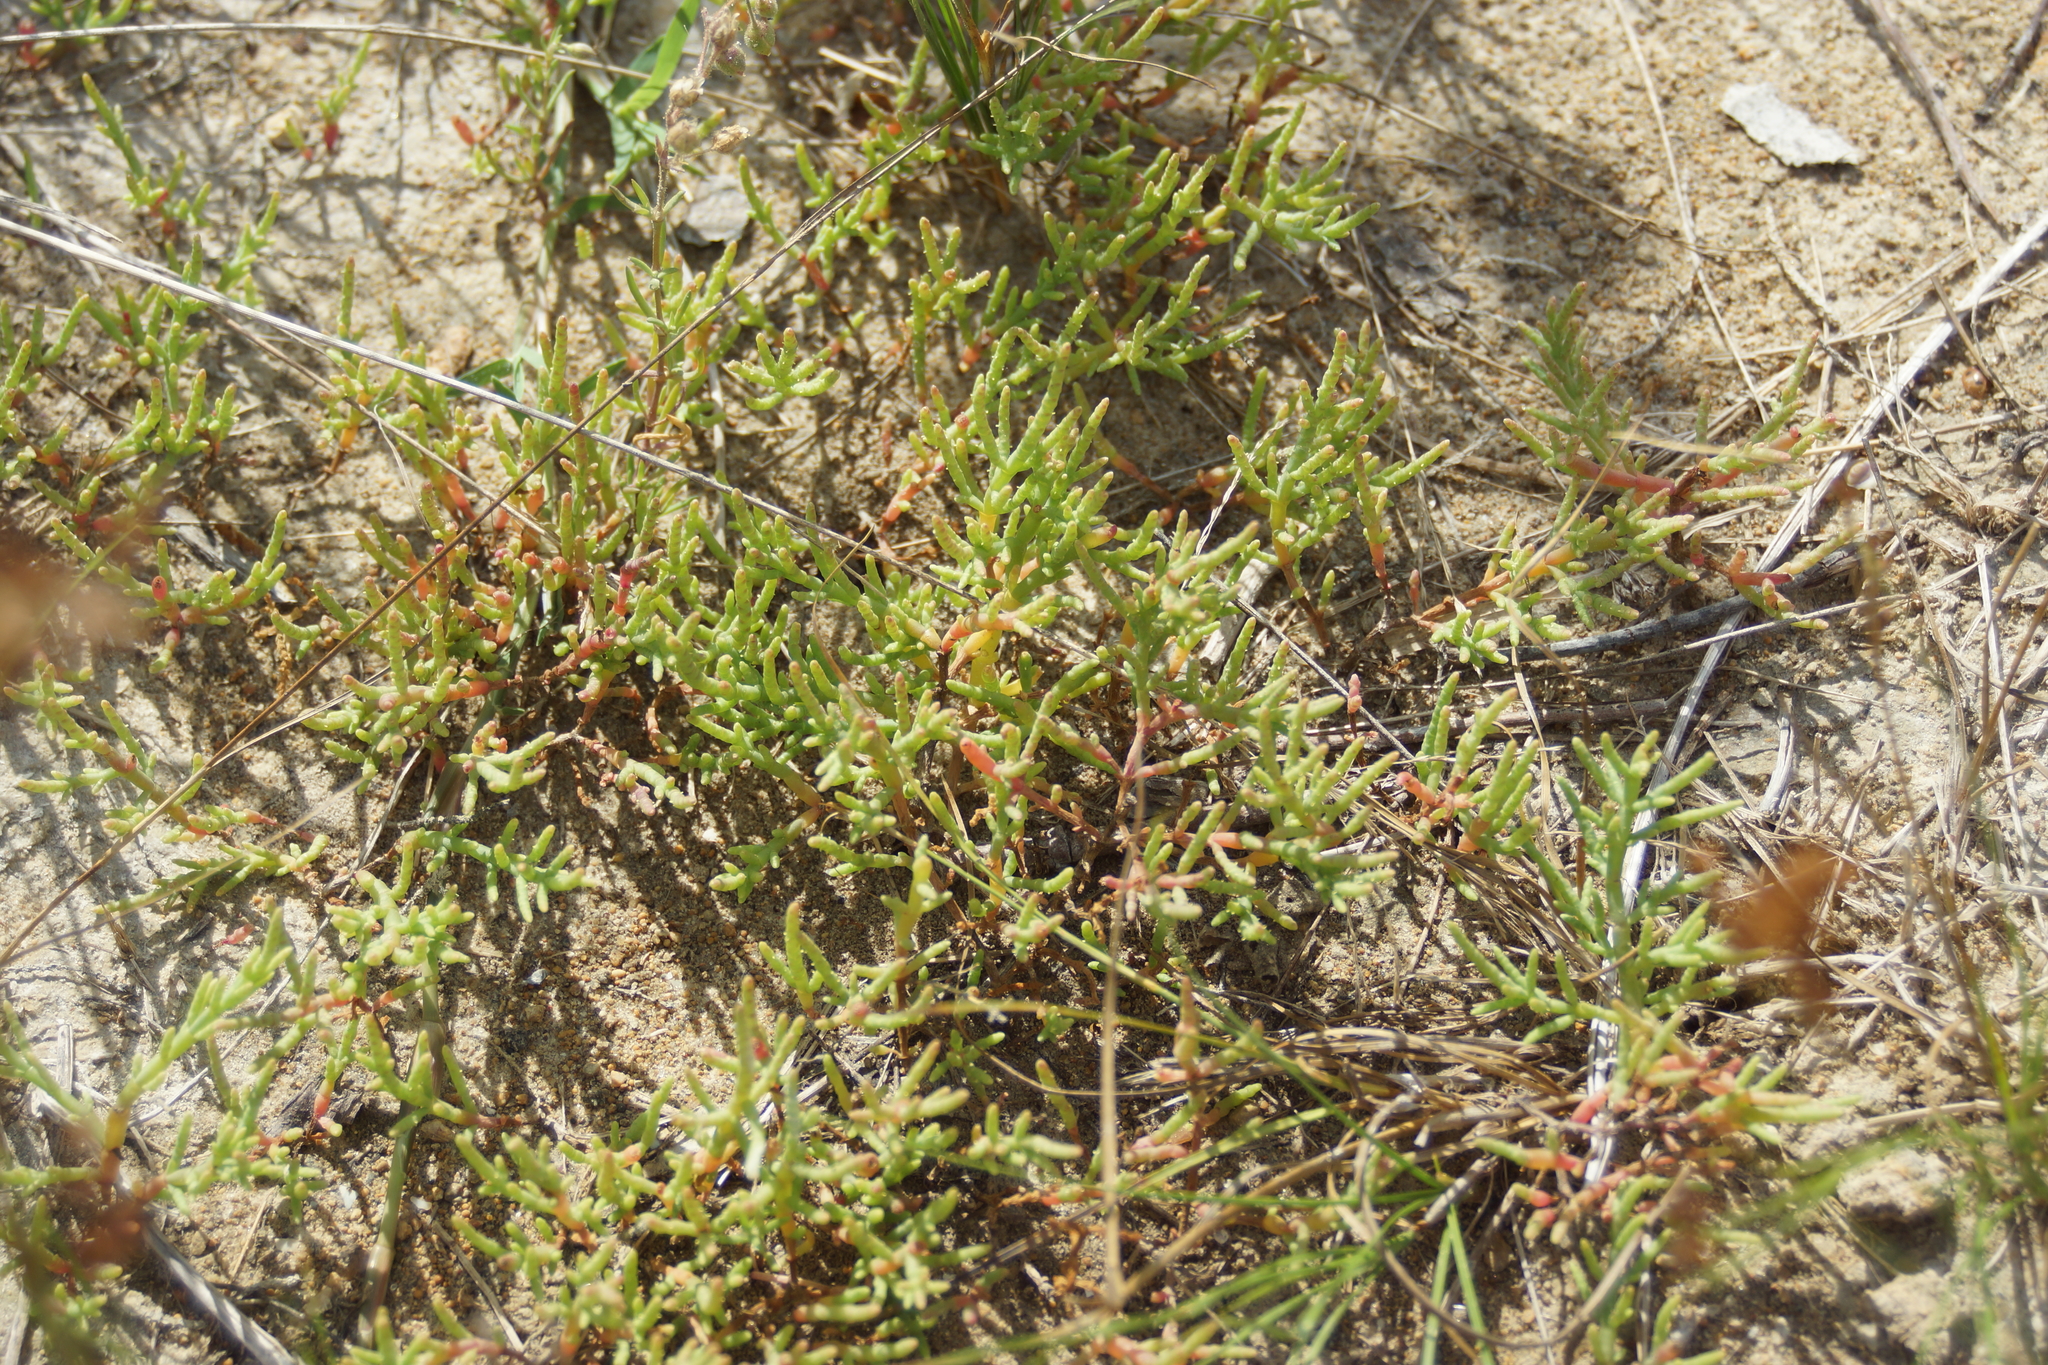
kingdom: Plantae
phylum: Tracheophyta
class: Magnoliopsida
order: Caryophyllales
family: Amaranthaceae
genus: Salicornia
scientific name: Salicornia perennans
